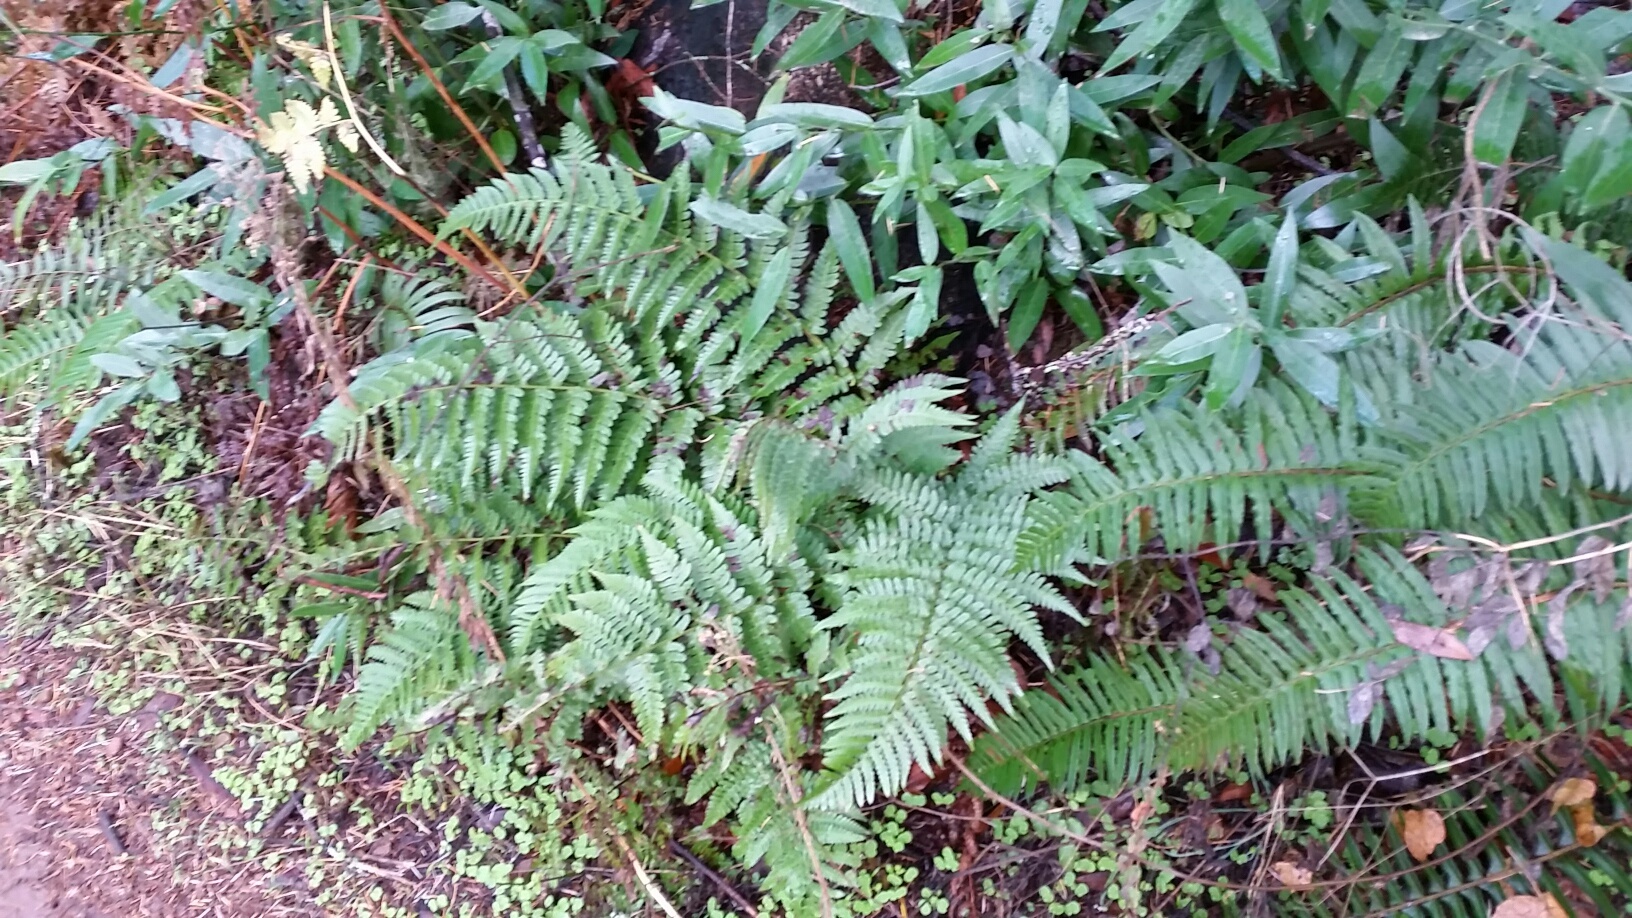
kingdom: Plantae
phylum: Tracheophyta
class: Polypodiopsida
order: Polypodiales
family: Dryopteridaceae
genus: Dryopteris
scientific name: Dryopteris arguta
